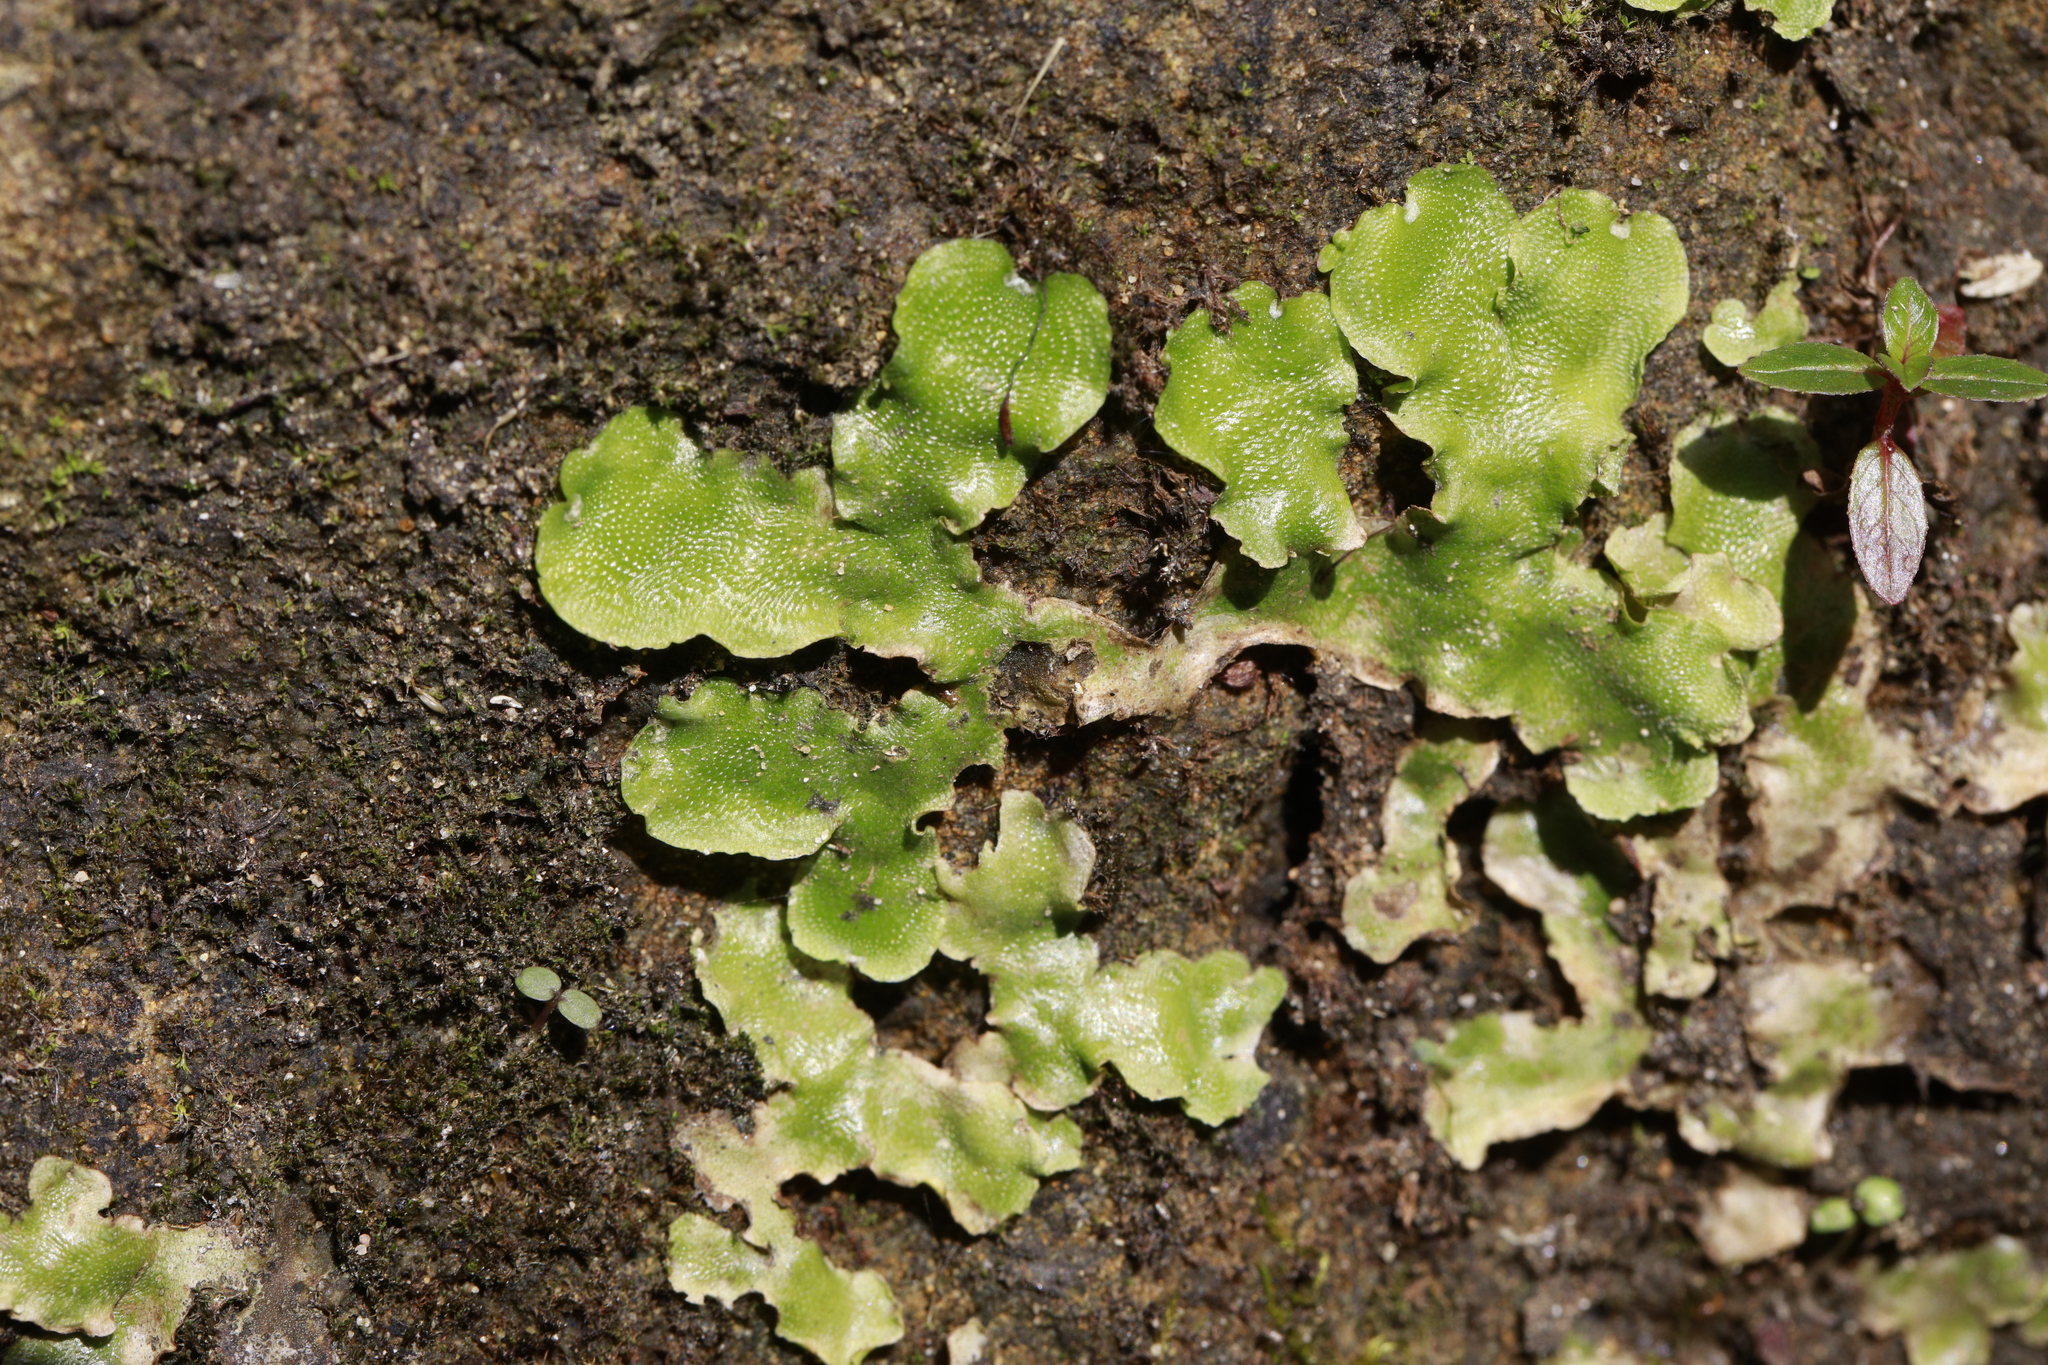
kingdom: Plantae
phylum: Marchantiophyta
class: Marchantiopsida
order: Lunulariales
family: Lunulariaceae
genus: Lunularia
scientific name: Lunularia cruciata
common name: Crescent-cup liverwort
